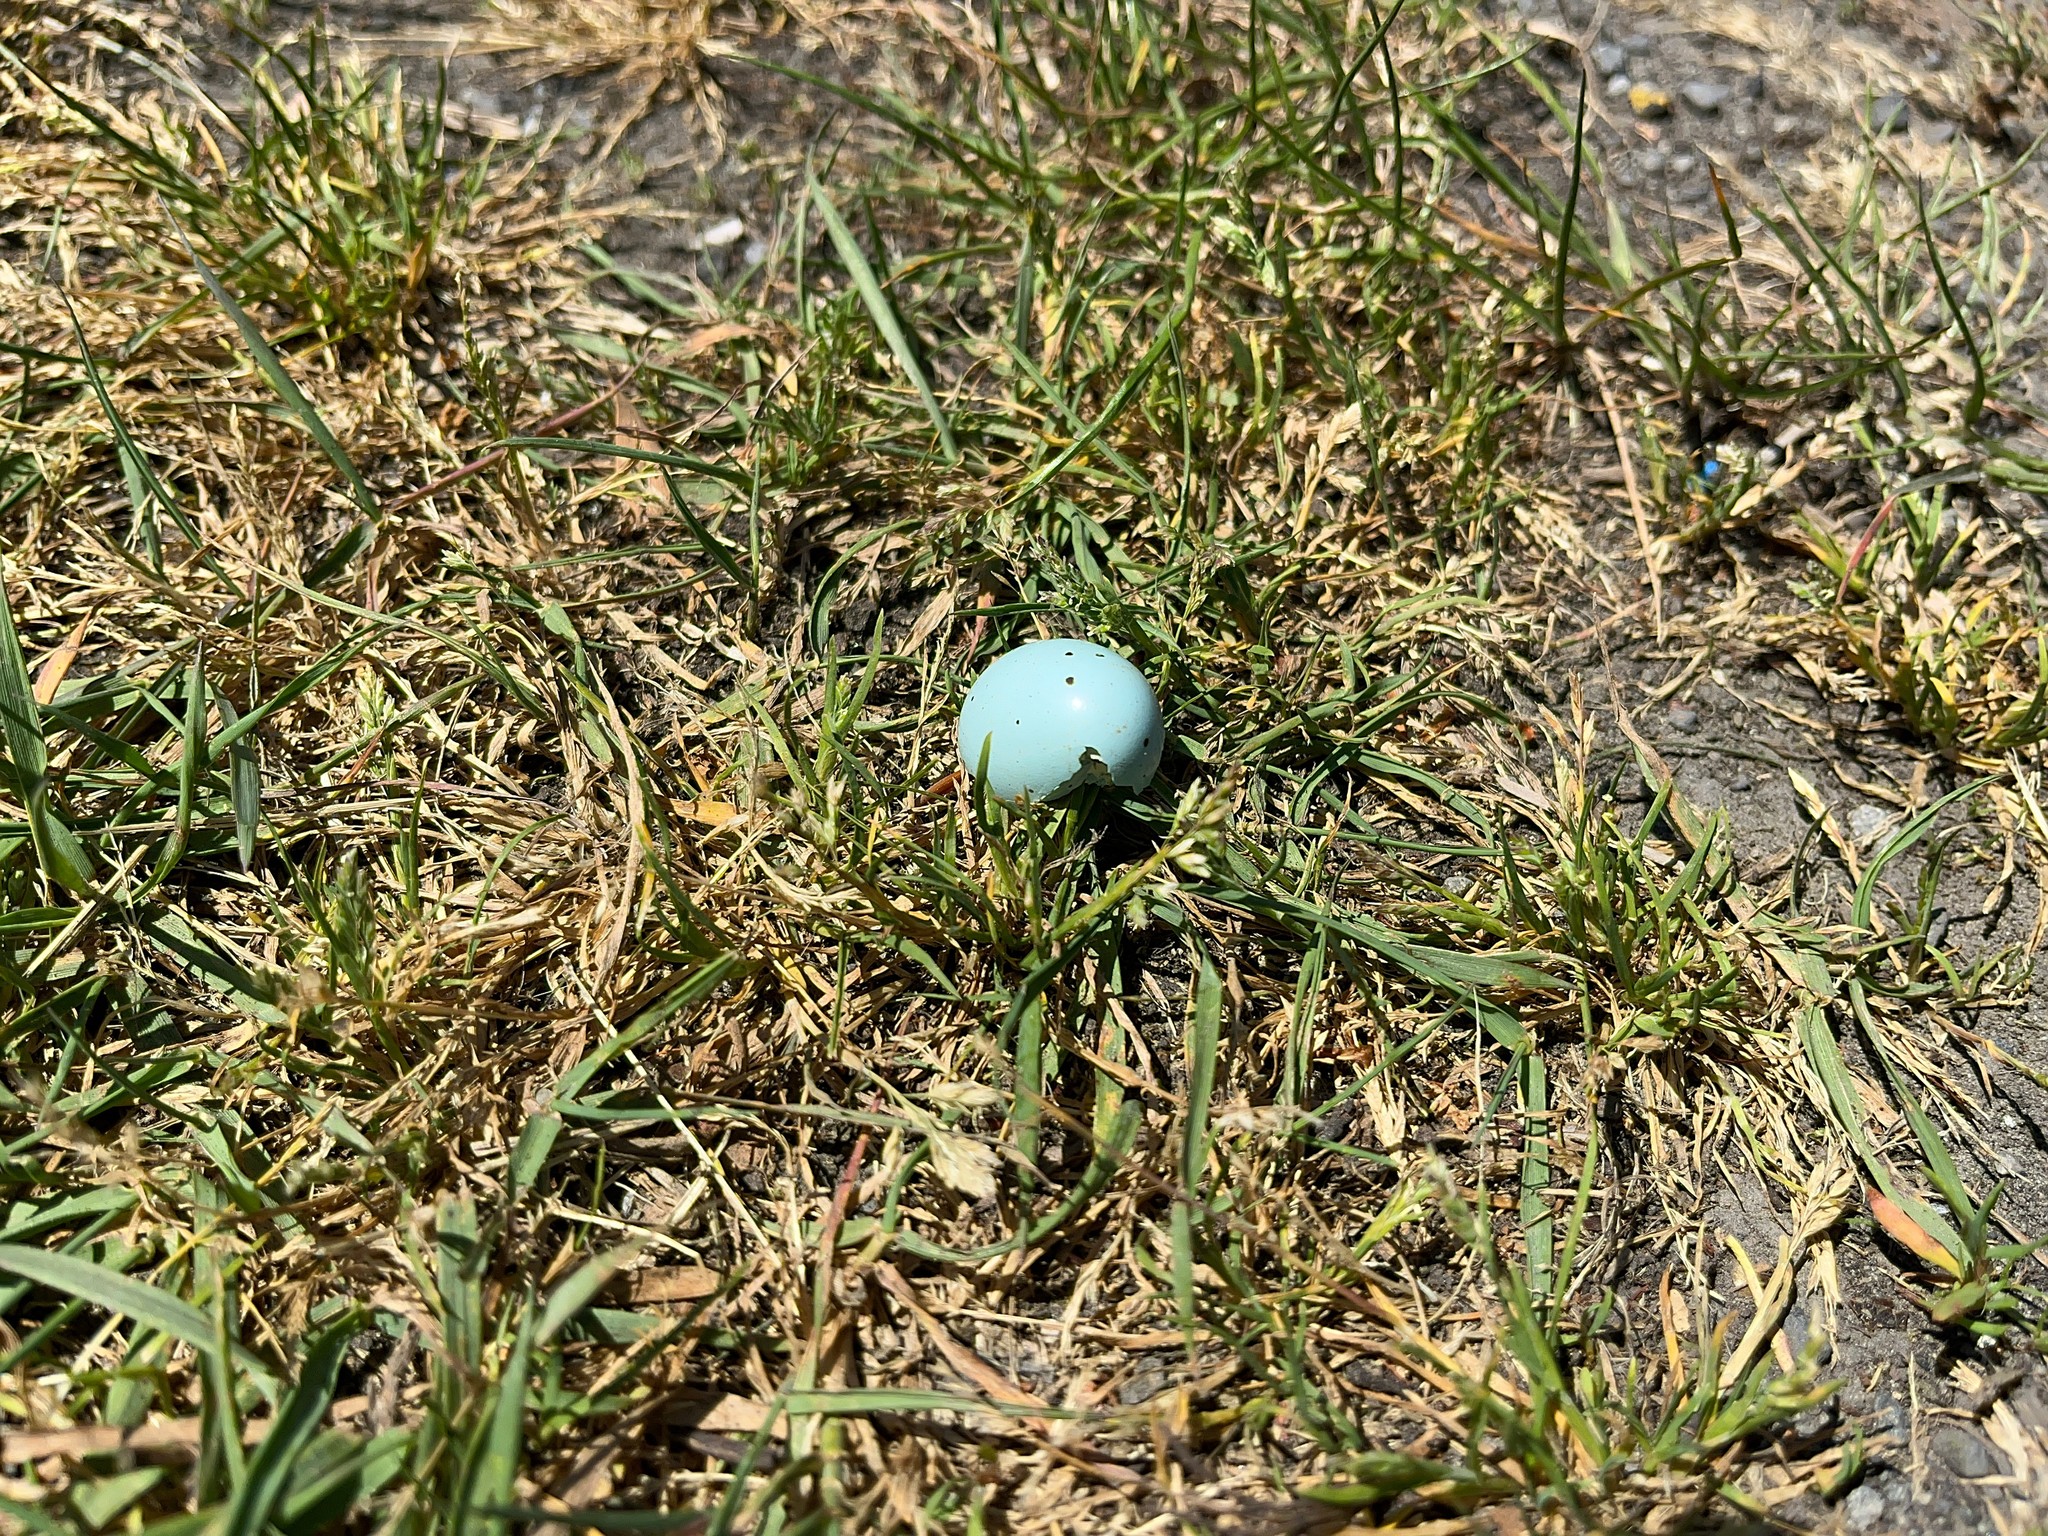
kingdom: Animalia
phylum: Chordata
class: Aves
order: Passeriformes
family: Turdidae
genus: Turdus
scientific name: Turdus philomelos
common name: Song thrush
